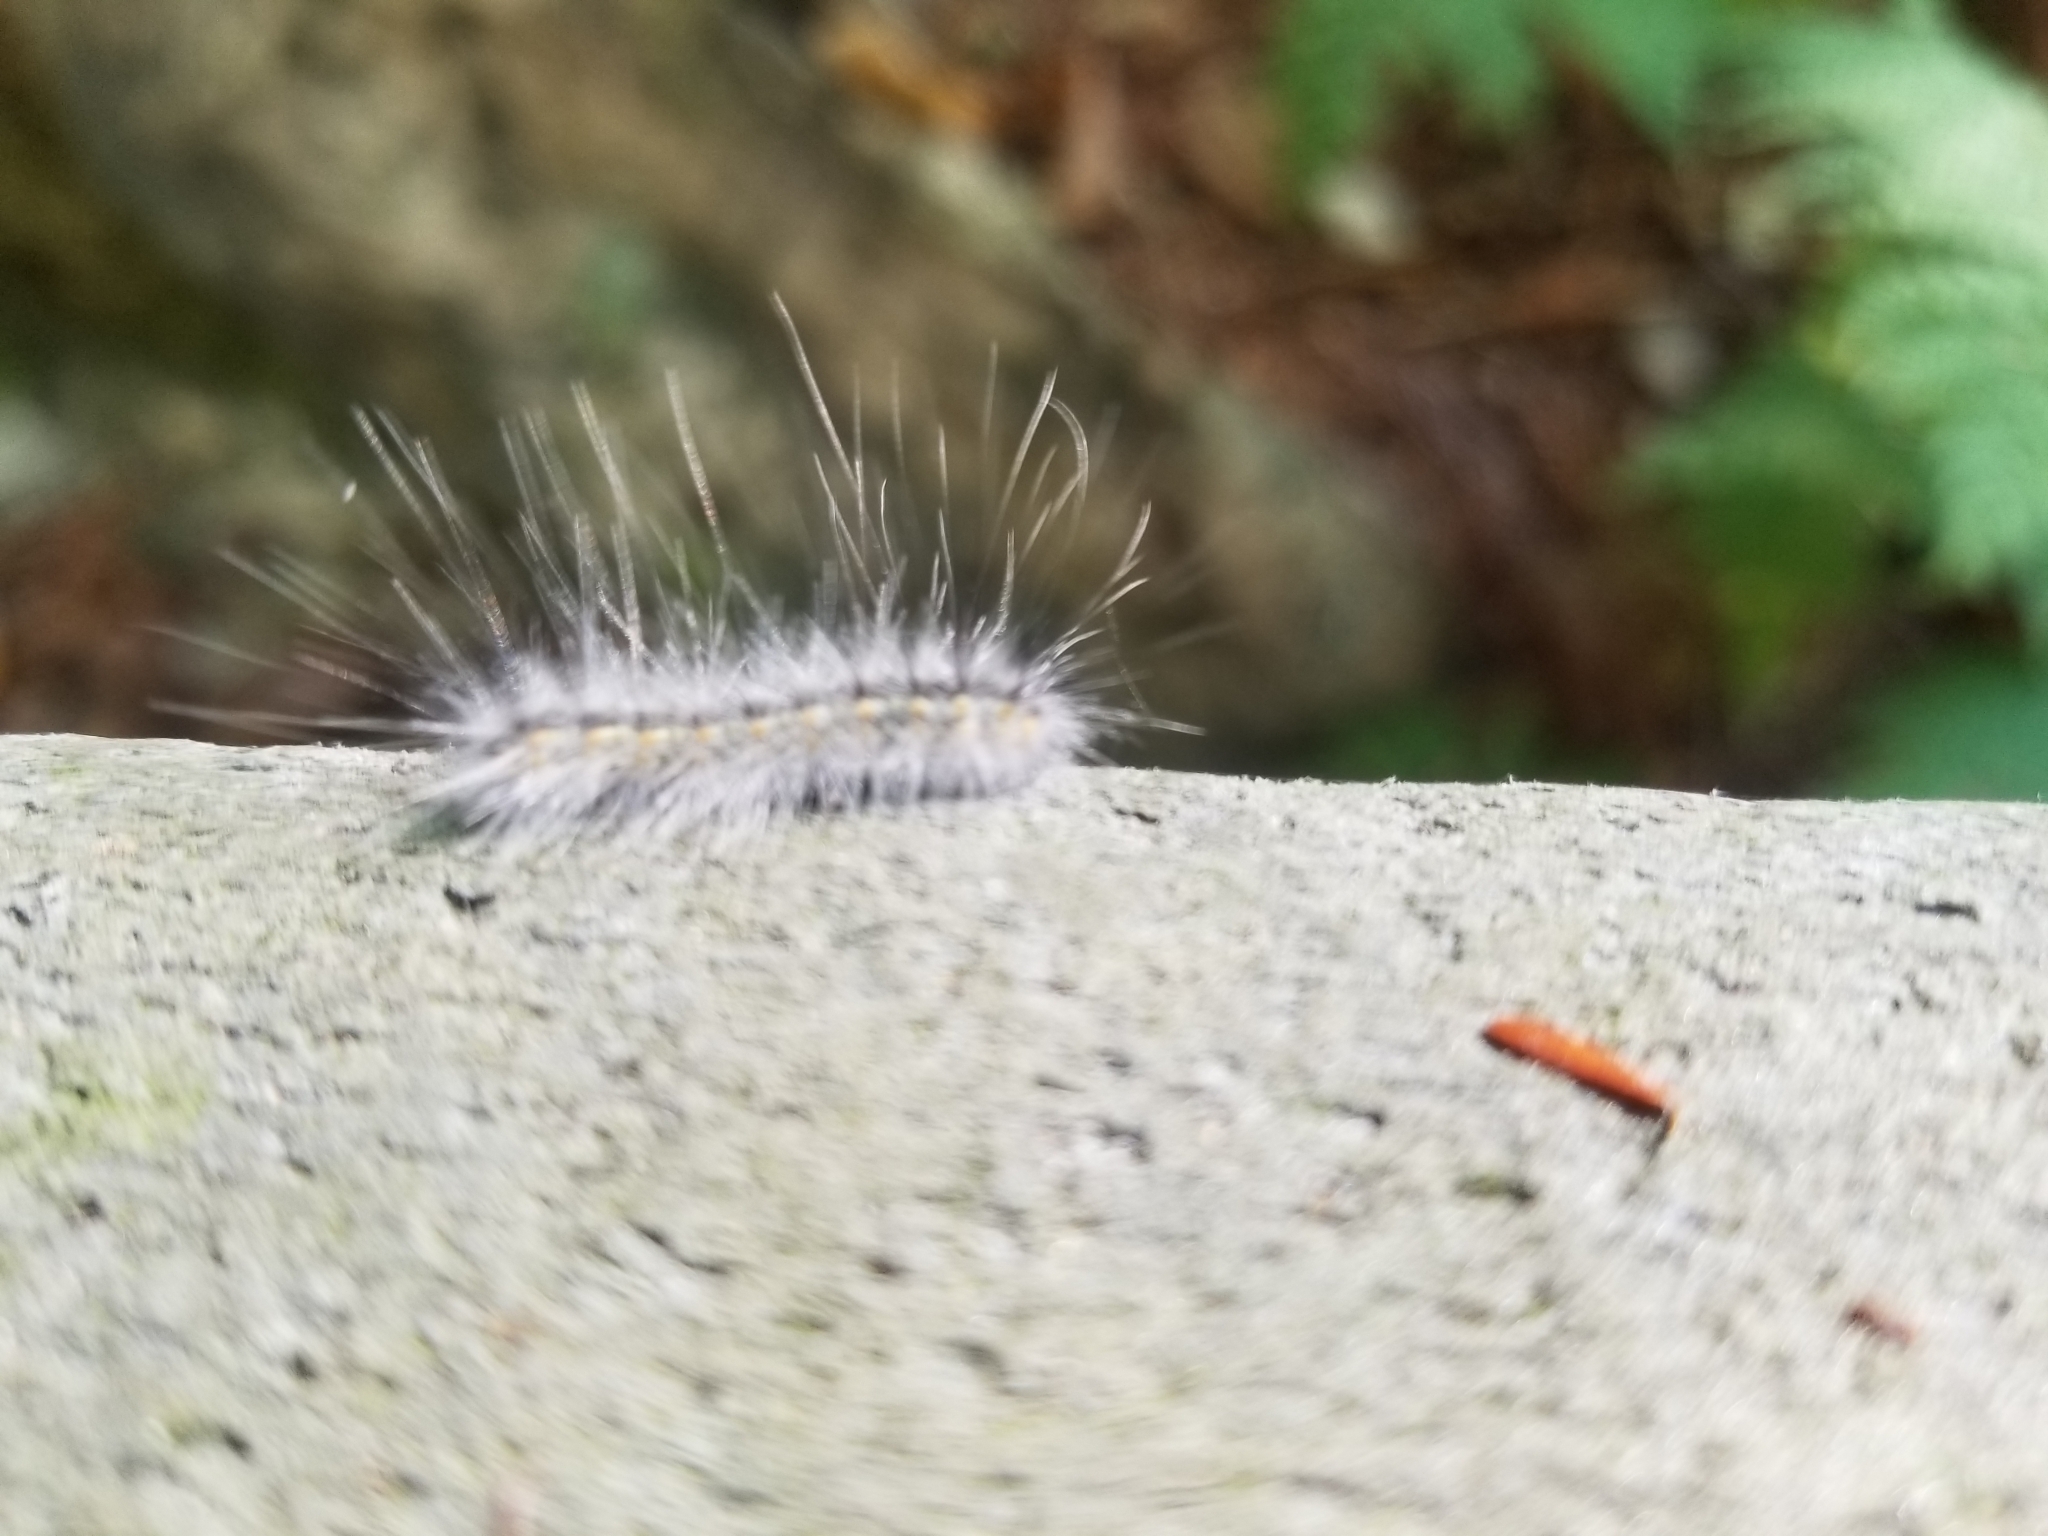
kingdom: Animalia
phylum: Arthropoda
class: Insecta
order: Lepidoptera
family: Erebidae
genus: Hyphantria
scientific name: Hyphantria cunea
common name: American white moth
